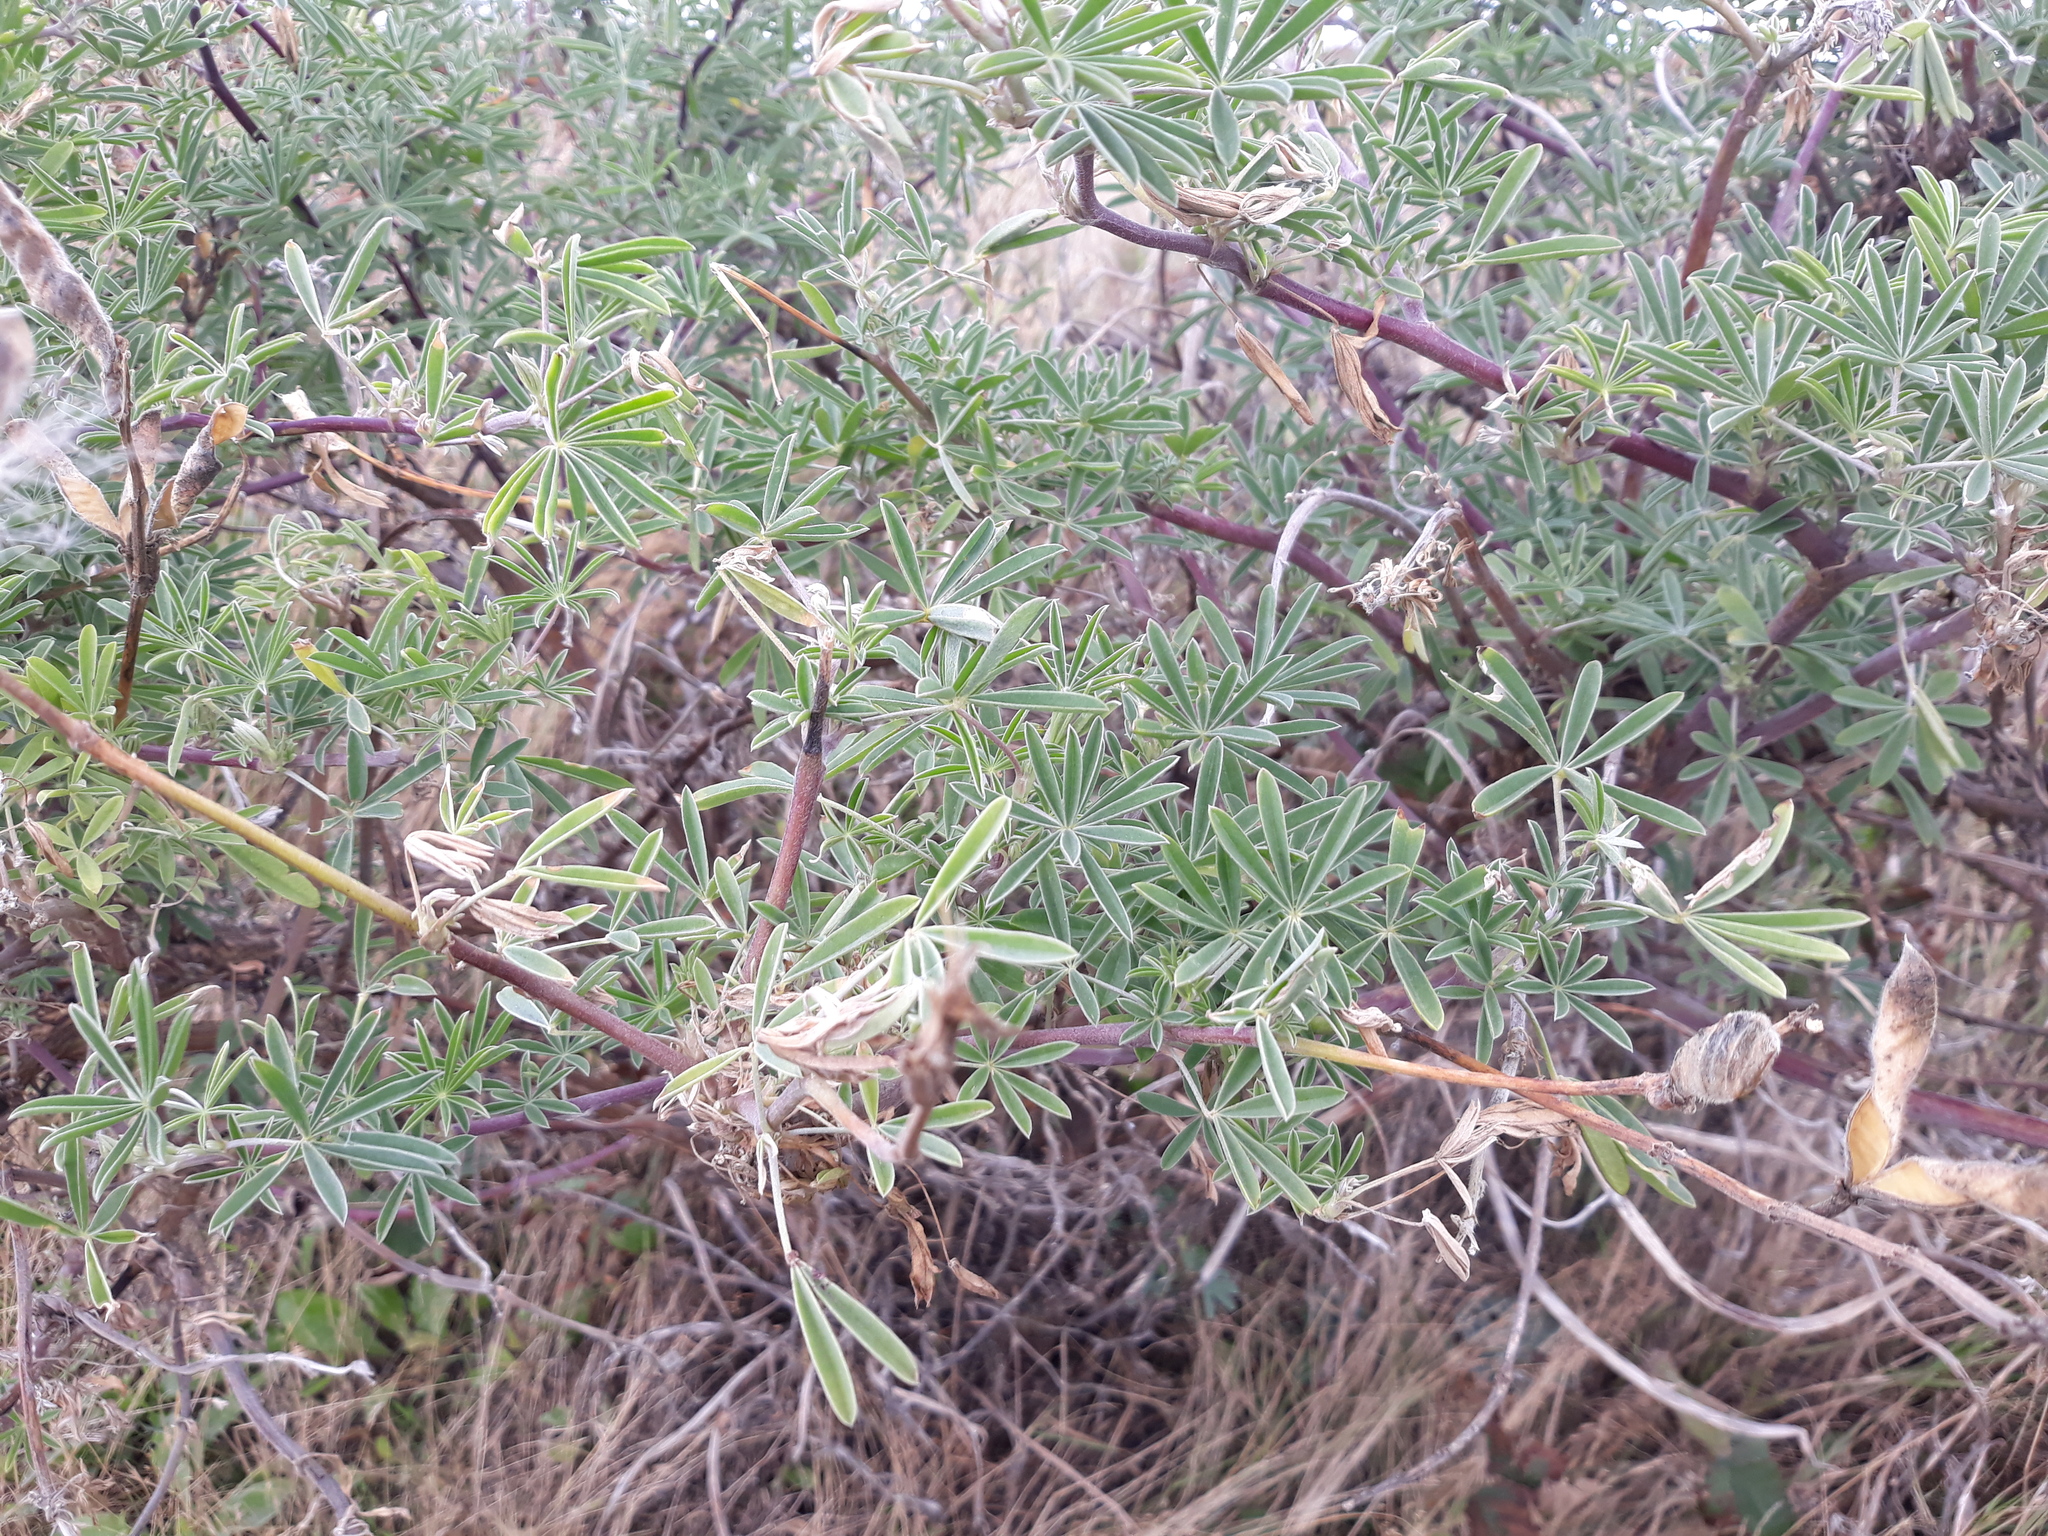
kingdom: Plantae
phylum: Tracheophyta
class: Magnoliopsida
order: Fabales
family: Fabaceae
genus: Lupinus
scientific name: Lupinus arboreus
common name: Yellow bush lupine
